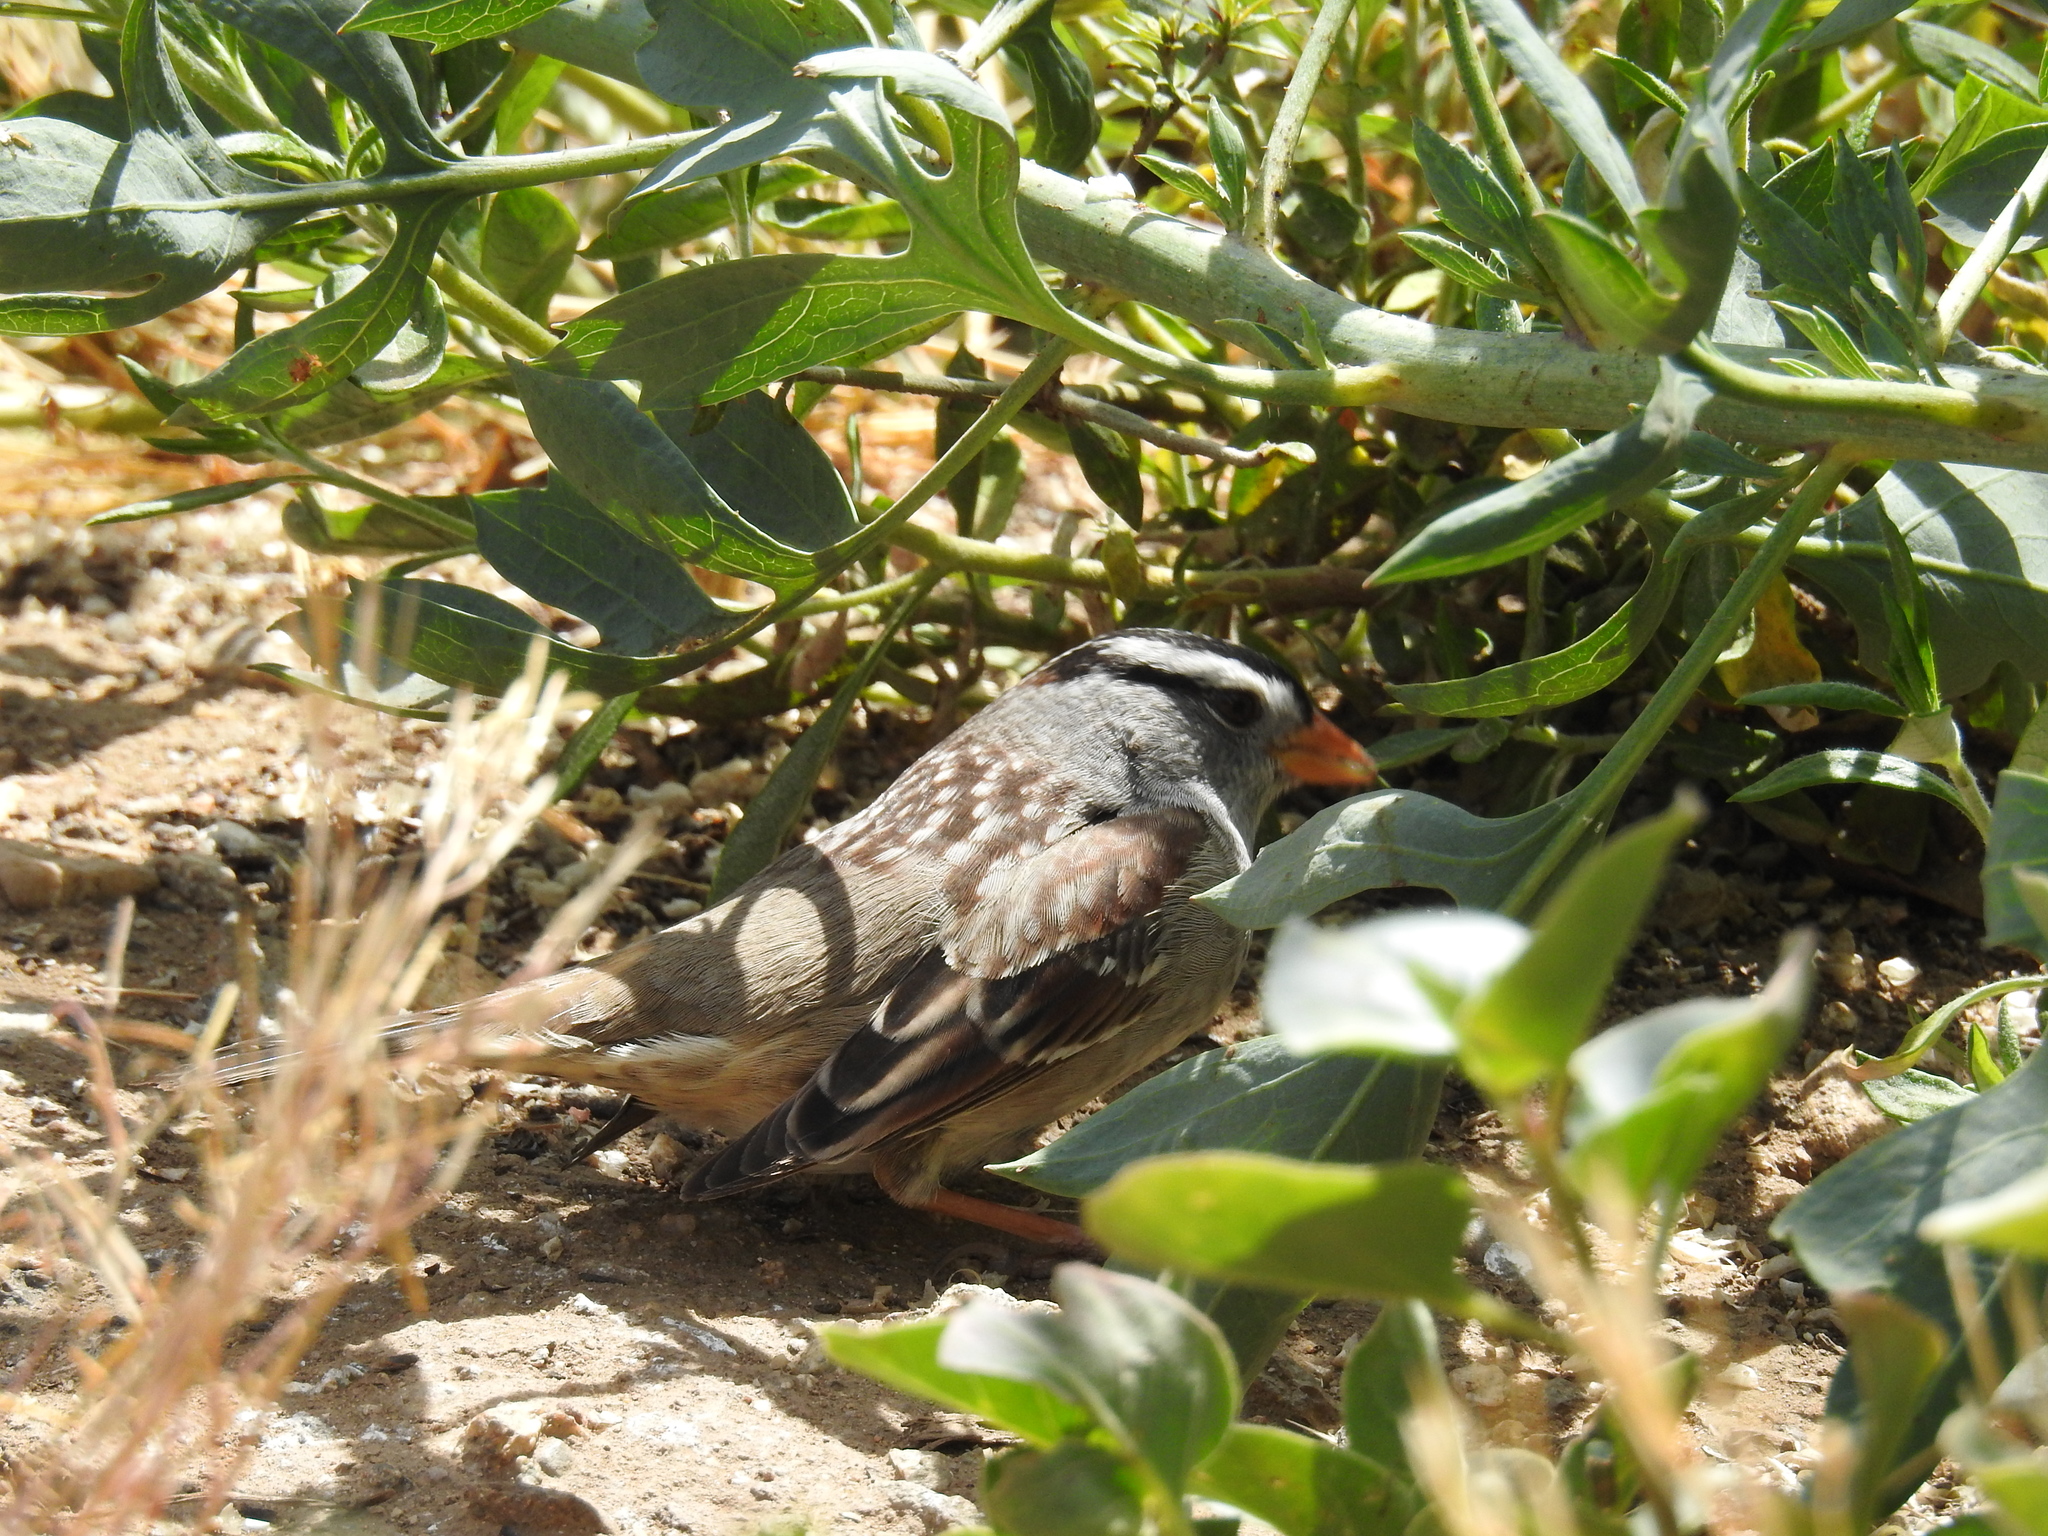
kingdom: Animalia
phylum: Chordata
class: Aves
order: Passeriformes
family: Passerellidae
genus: Zonotrichia
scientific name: Zonotrichia leucophrys
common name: White-crowned sparrow
